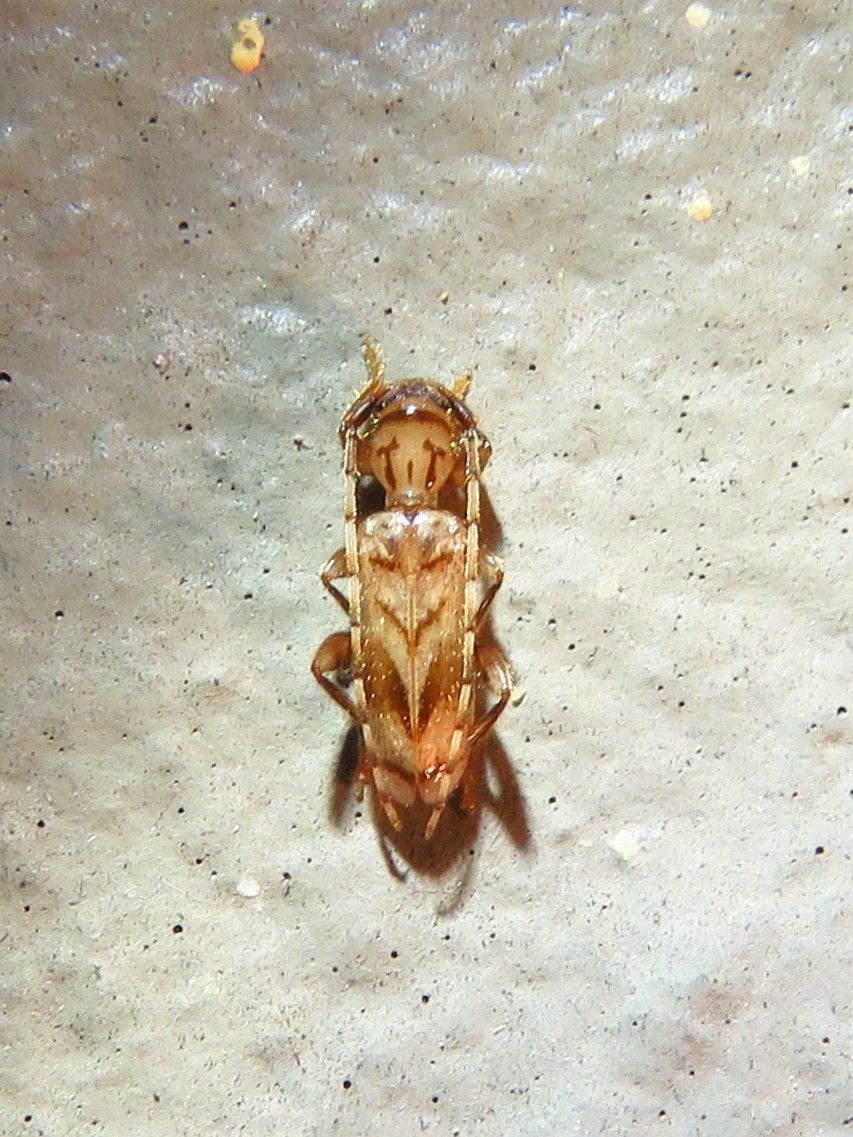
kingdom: Animalia
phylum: Arthropoda
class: Insecta
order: Coleoptera
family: Cerambycidae
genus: Obrium
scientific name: Obrium maculatum
